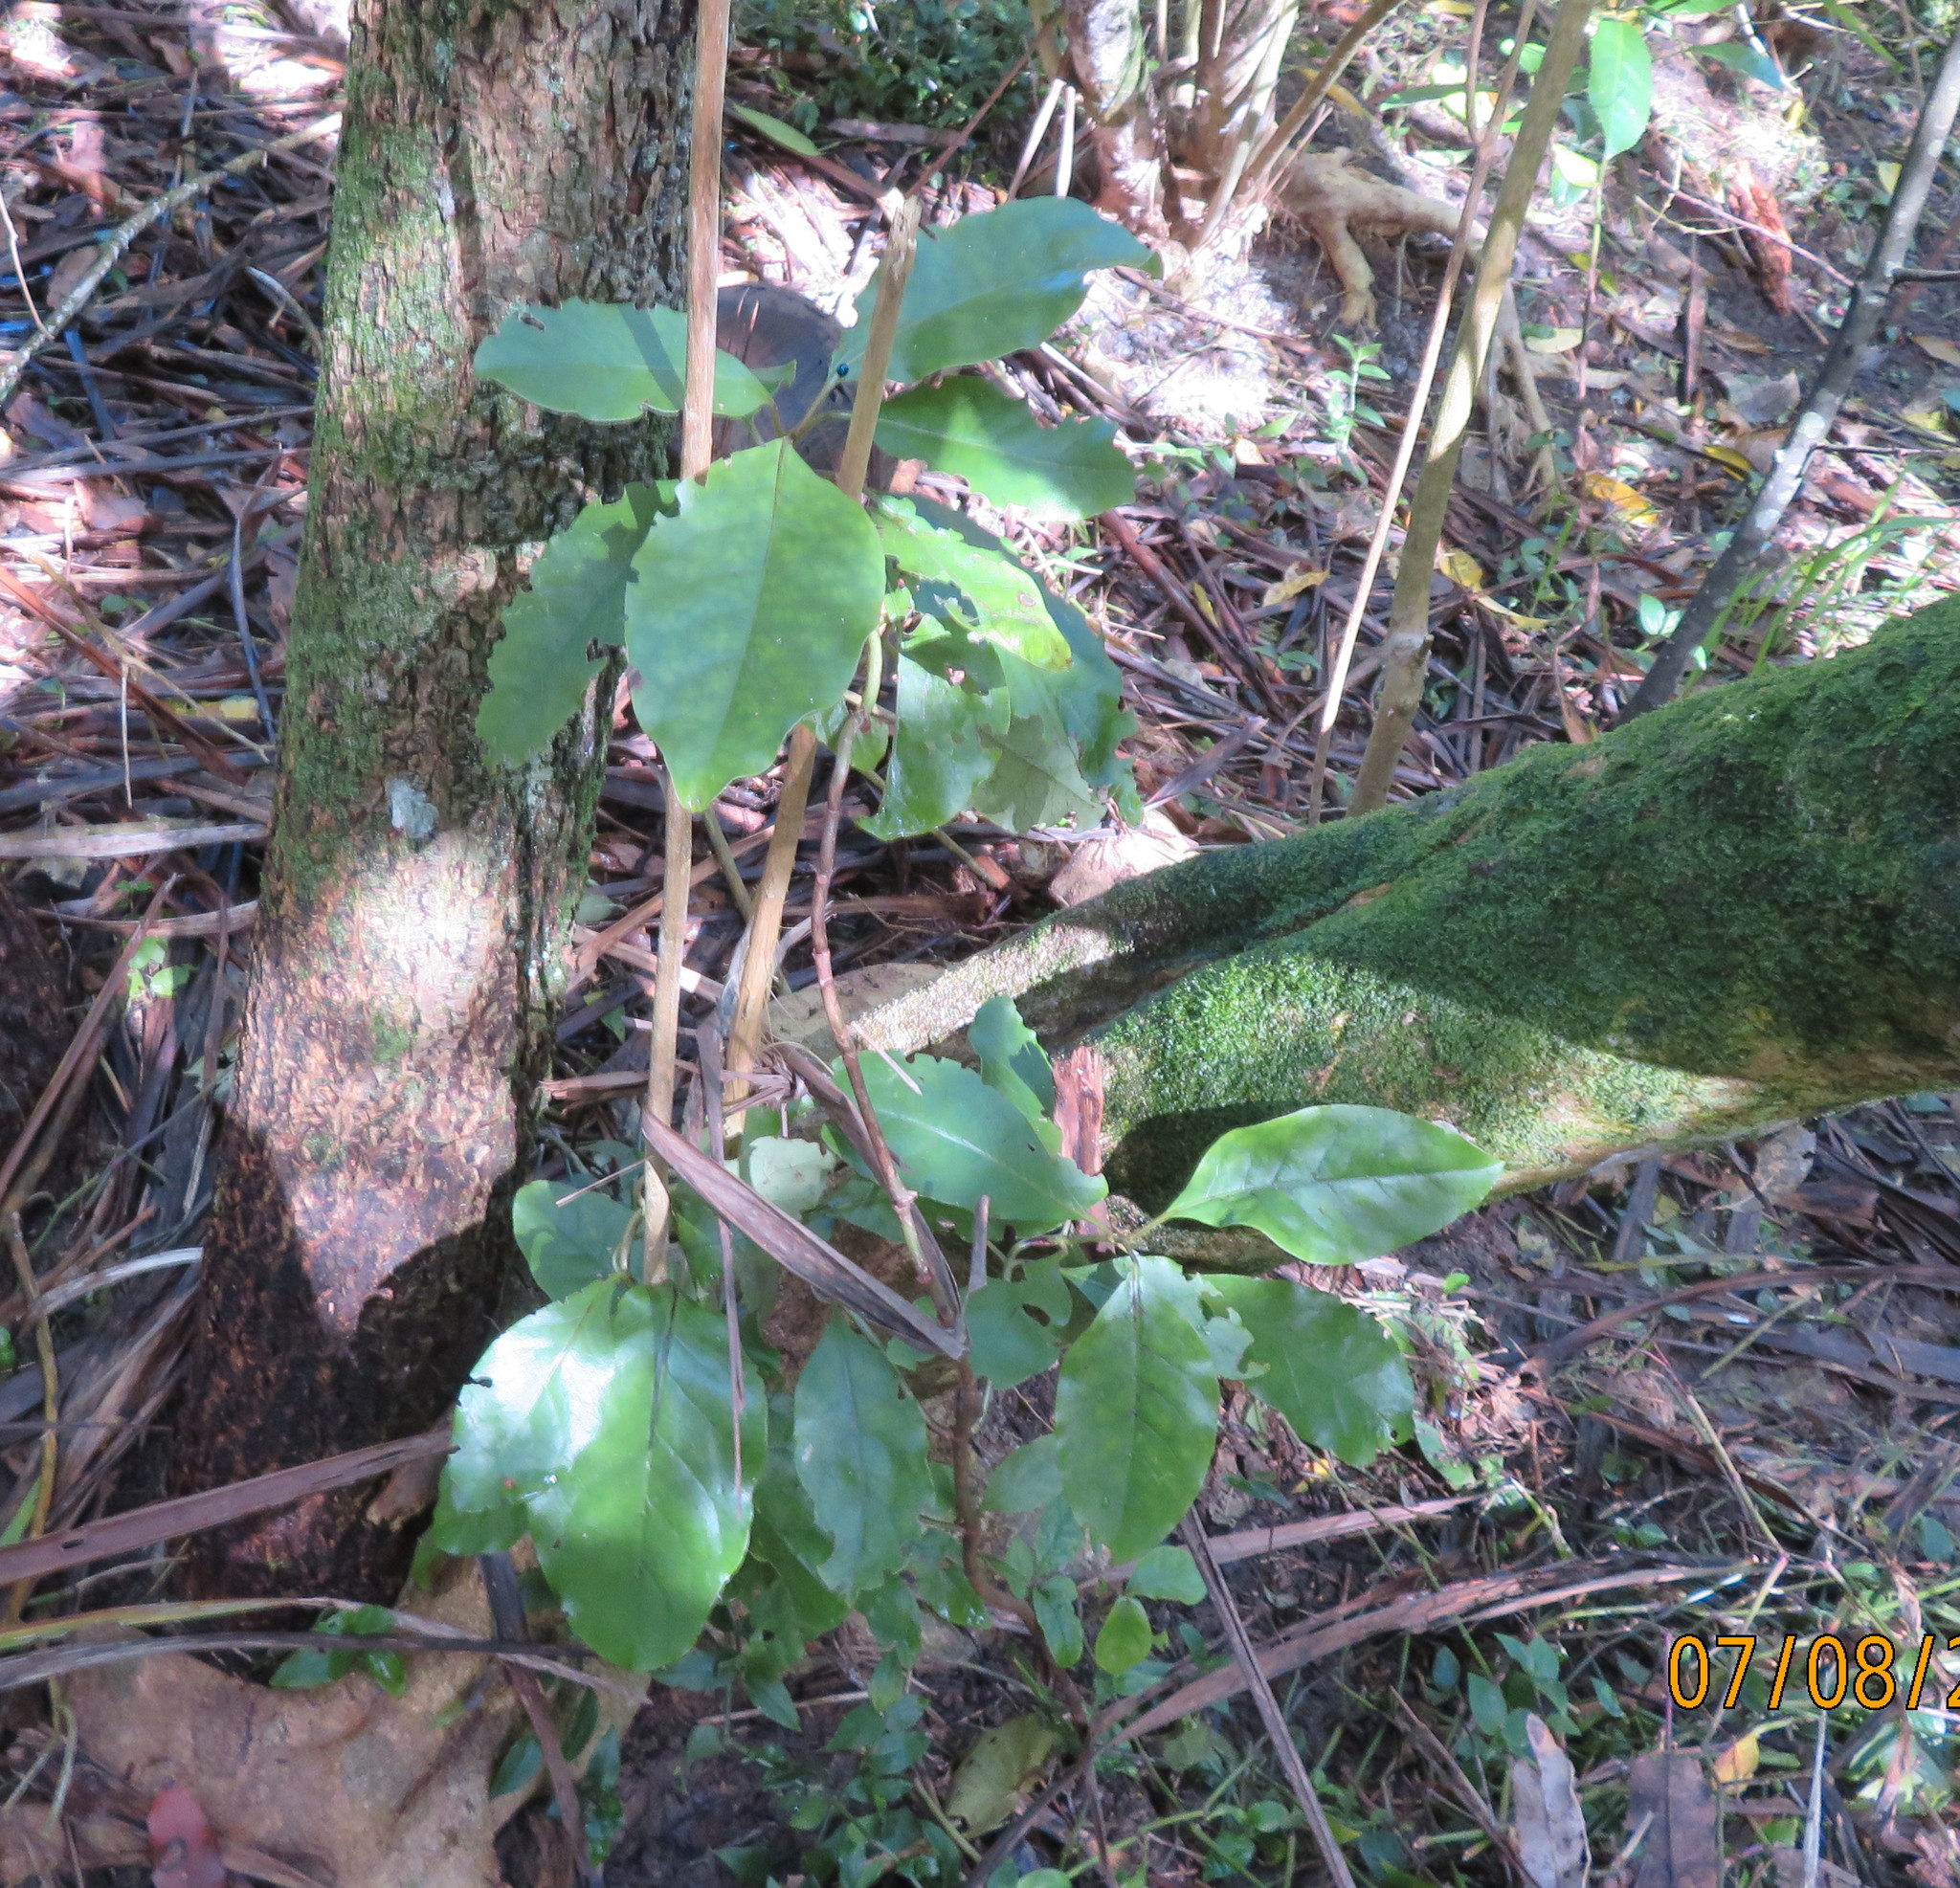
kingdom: Plantae
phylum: Tracheophyta
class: Magnoliopsida
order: Gentianales
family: Rubiaceae
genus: Coprosma
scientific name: Coprosma autumnalis
